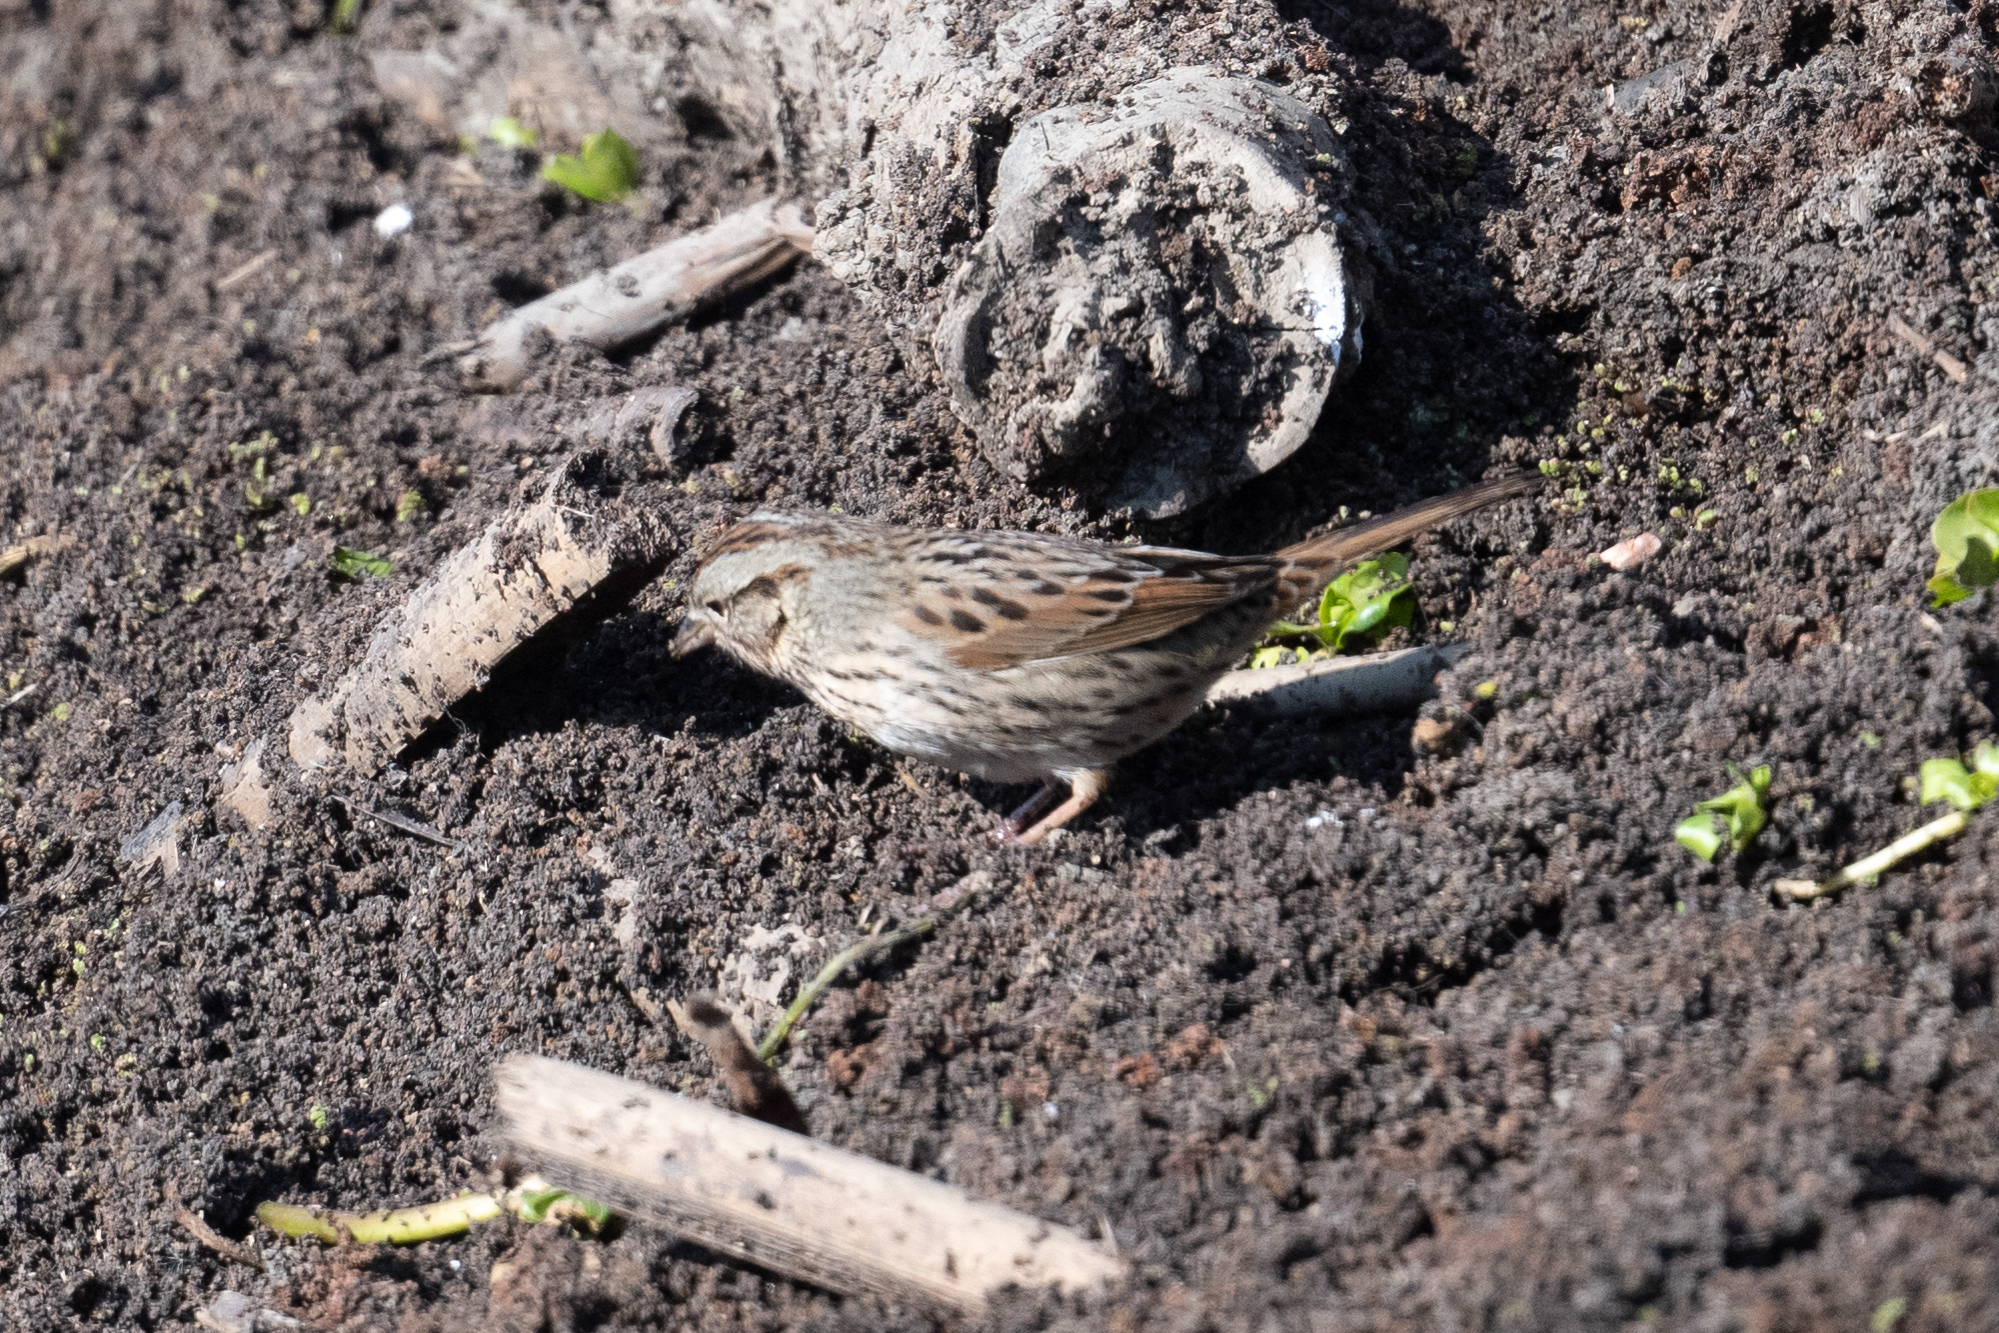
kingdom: Animalia
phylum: Chordata
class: Aves
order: Passeriformes
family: Passerellidae
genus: Melospiza
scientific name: Melospiza melodia
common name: Song sparrow
